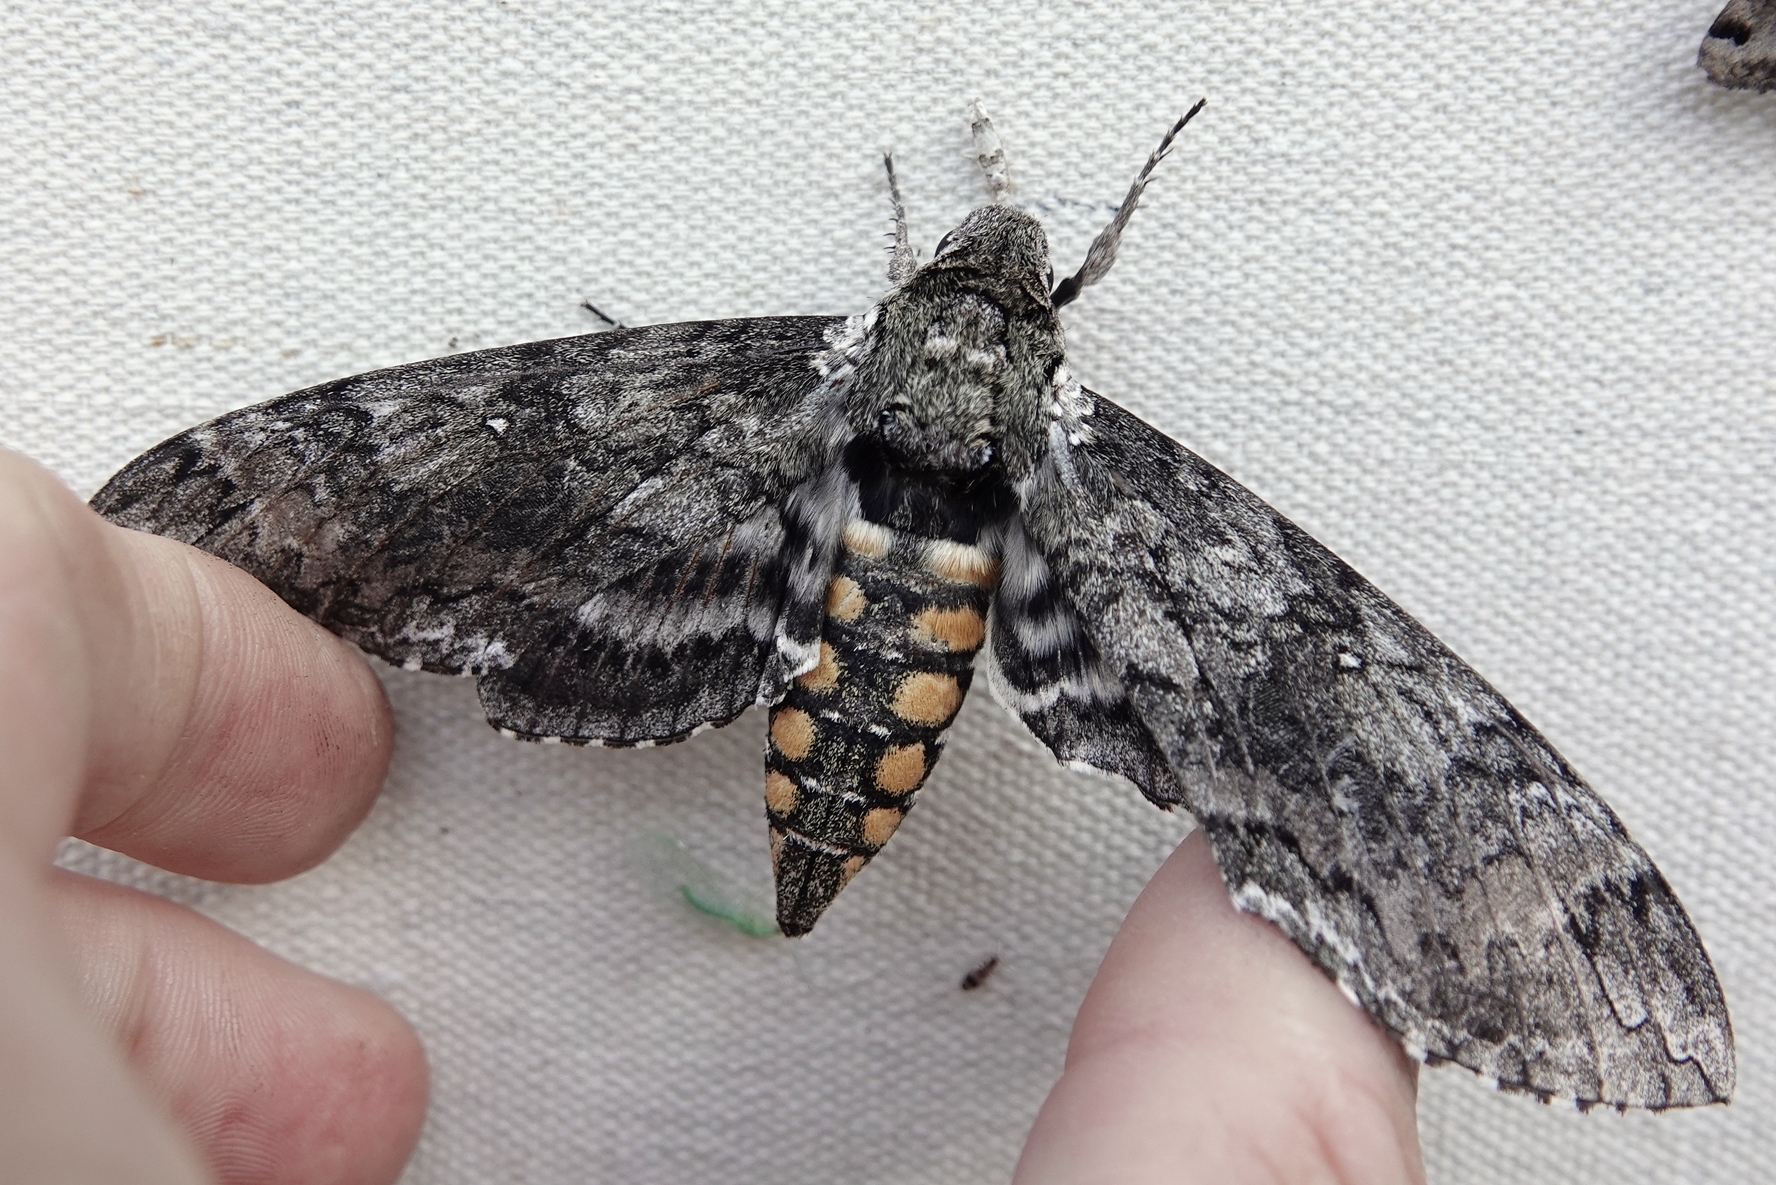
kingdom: Animalia
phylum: Arthropoda
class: Insecta
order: Lepidoptera
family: Sphingidae
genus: Manduca
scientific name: Manduca sexta
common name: Carolina sphinx
